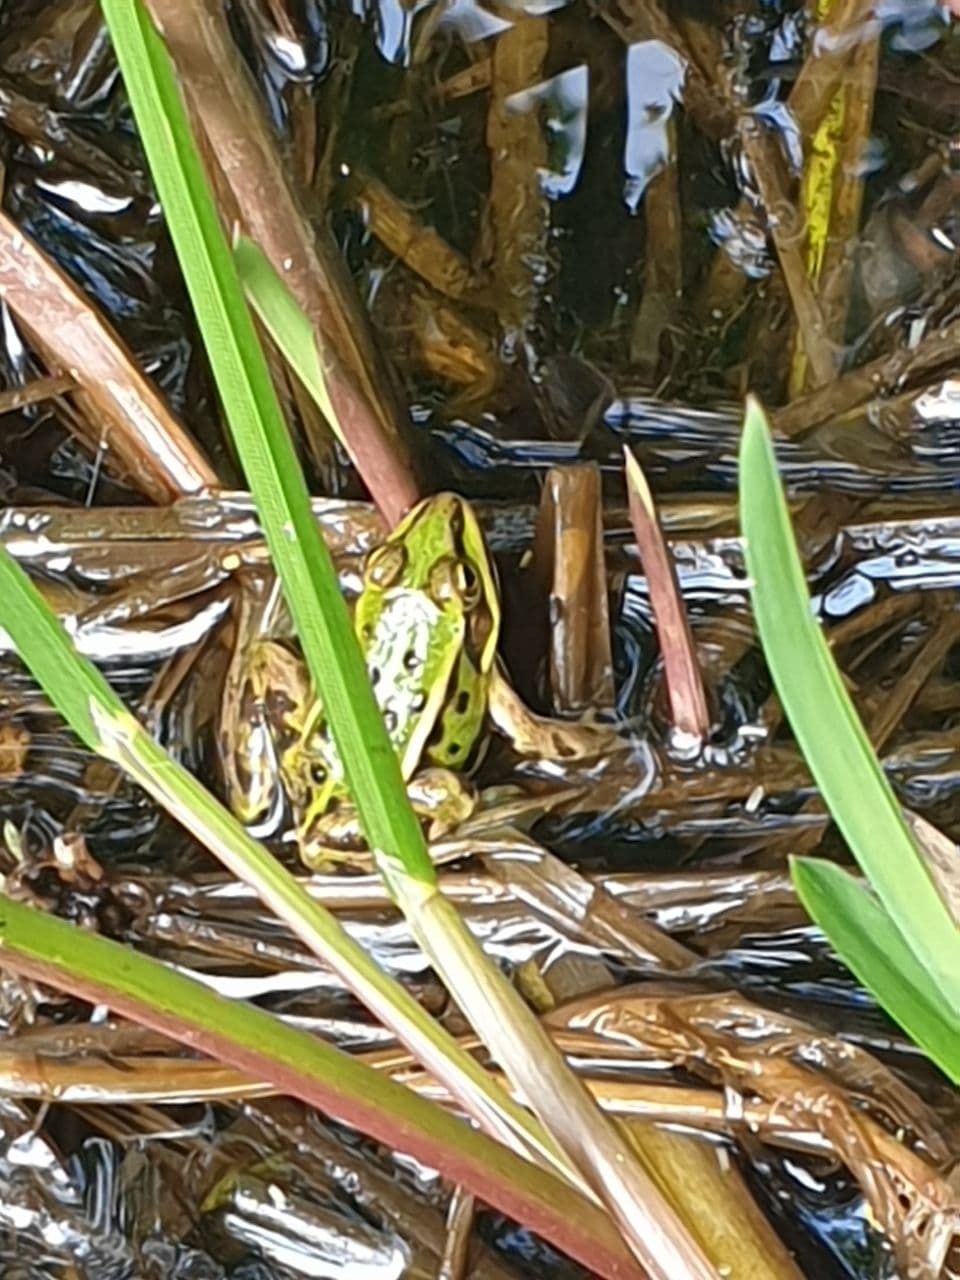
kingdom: Animalia
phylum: Chordata
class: Amphibia
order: Anura
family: Ranidae
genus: Pelophylax
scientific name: Pelophylax
